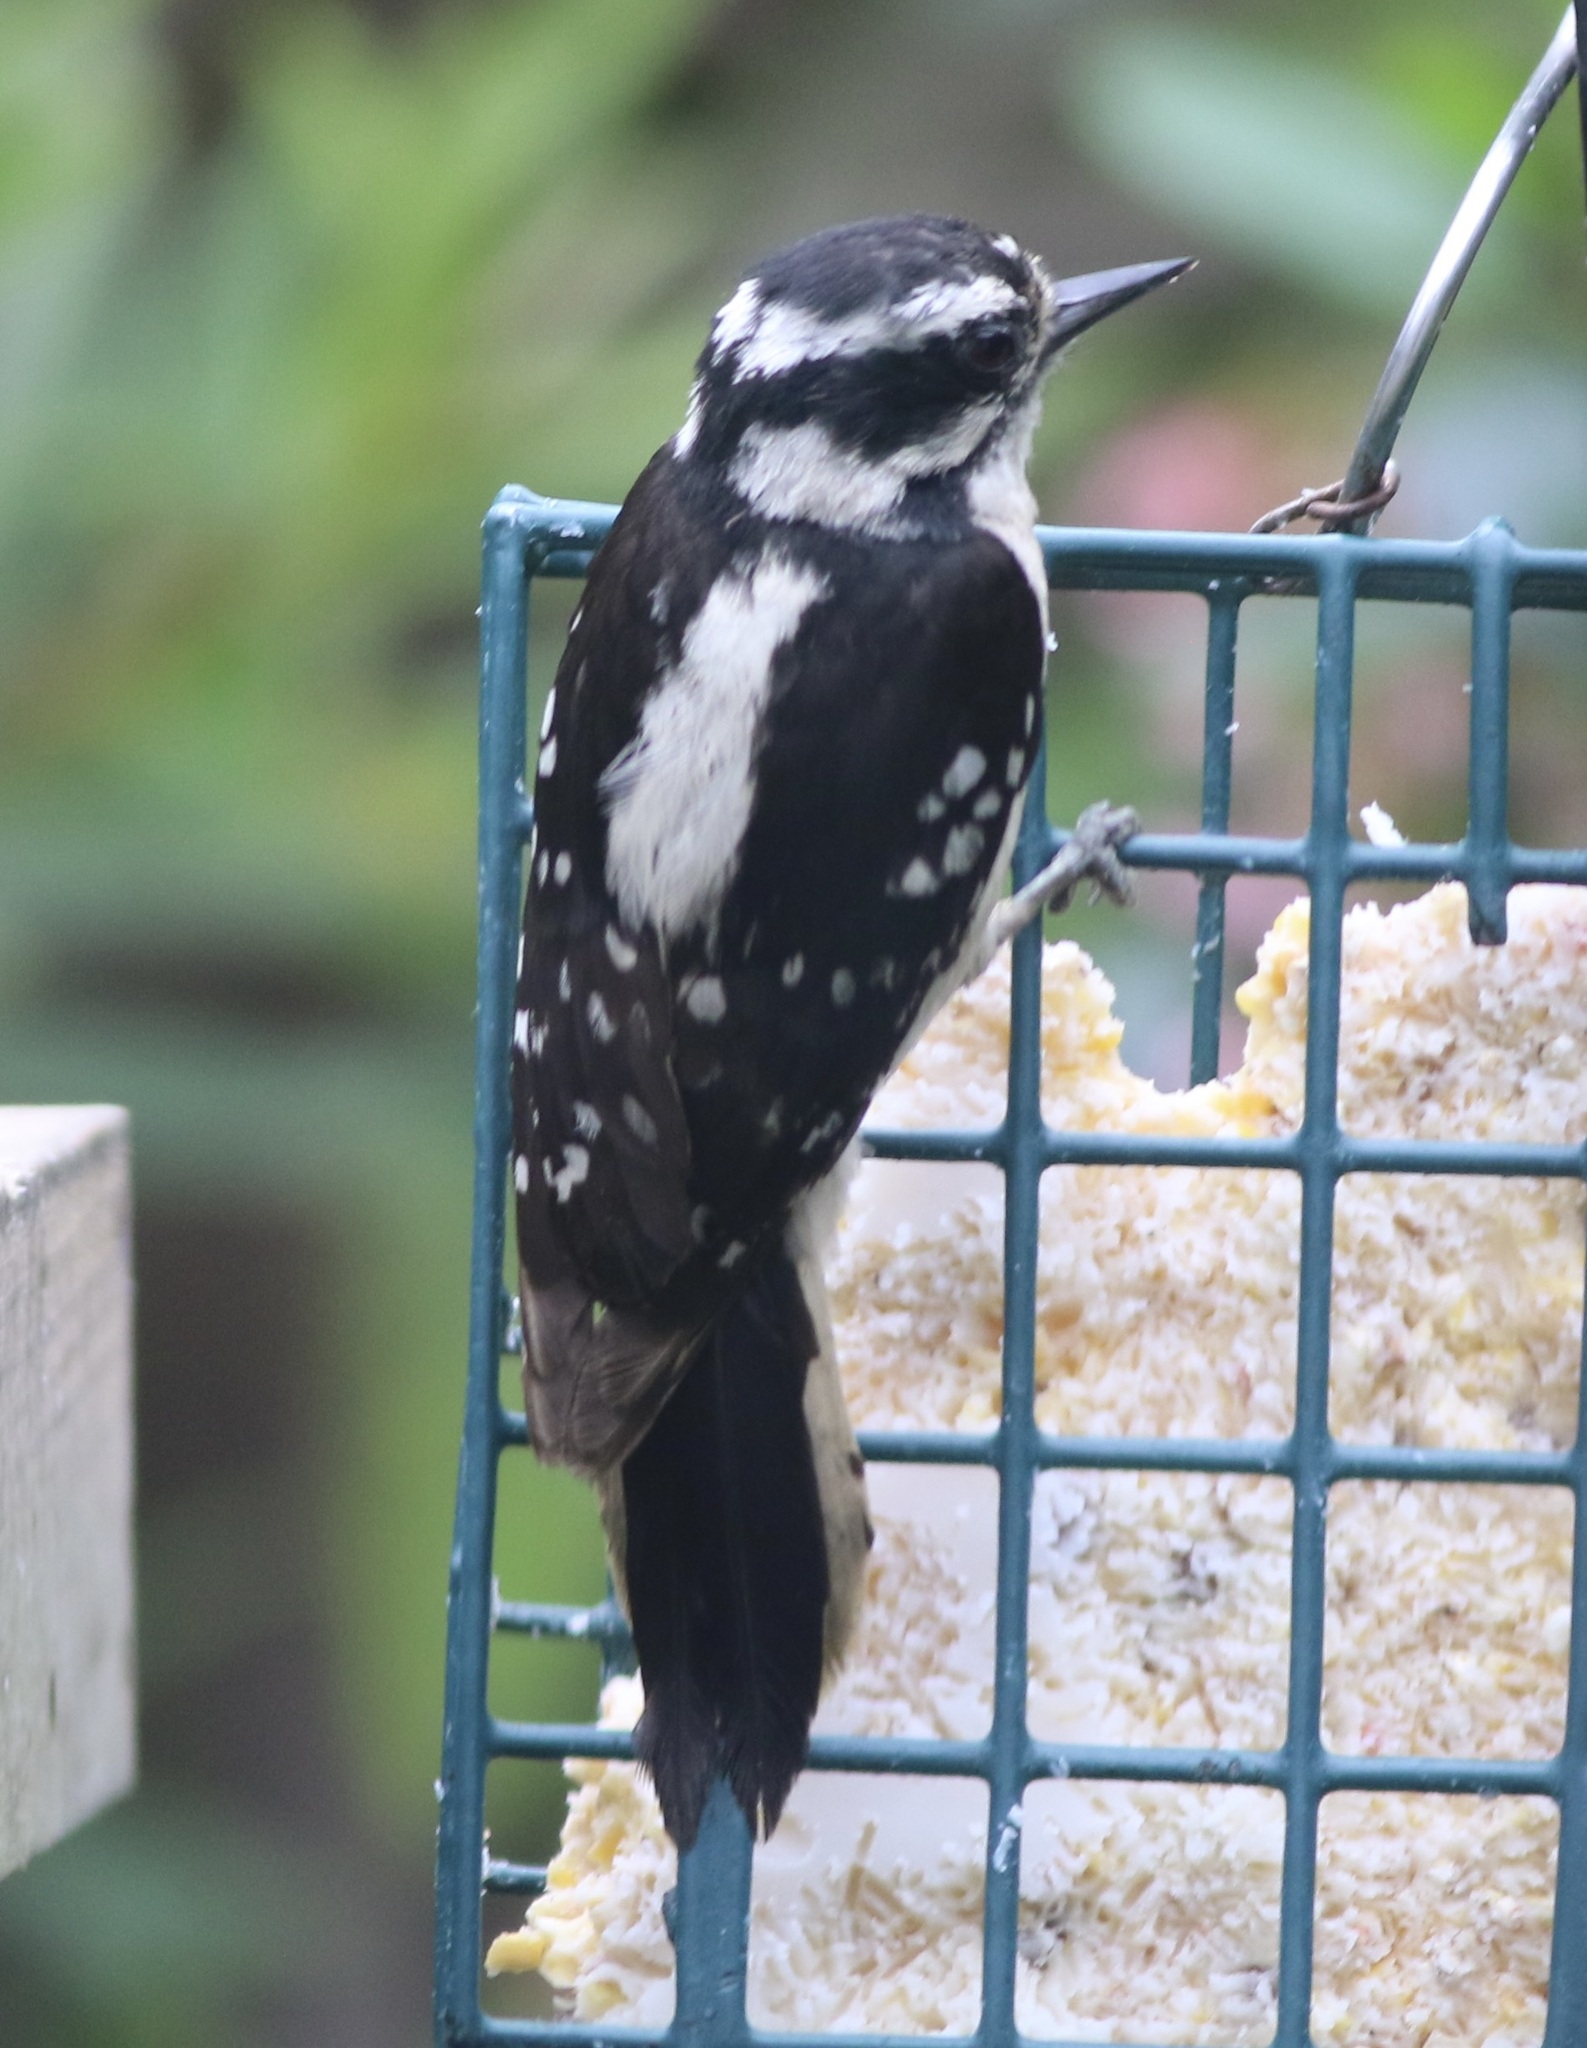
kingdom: Animalia
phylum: Chordata
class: Aves
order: Piciformes
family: Picidae
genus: Dryobates
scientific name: Dryobates pubescens
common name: Downy woodpecker
